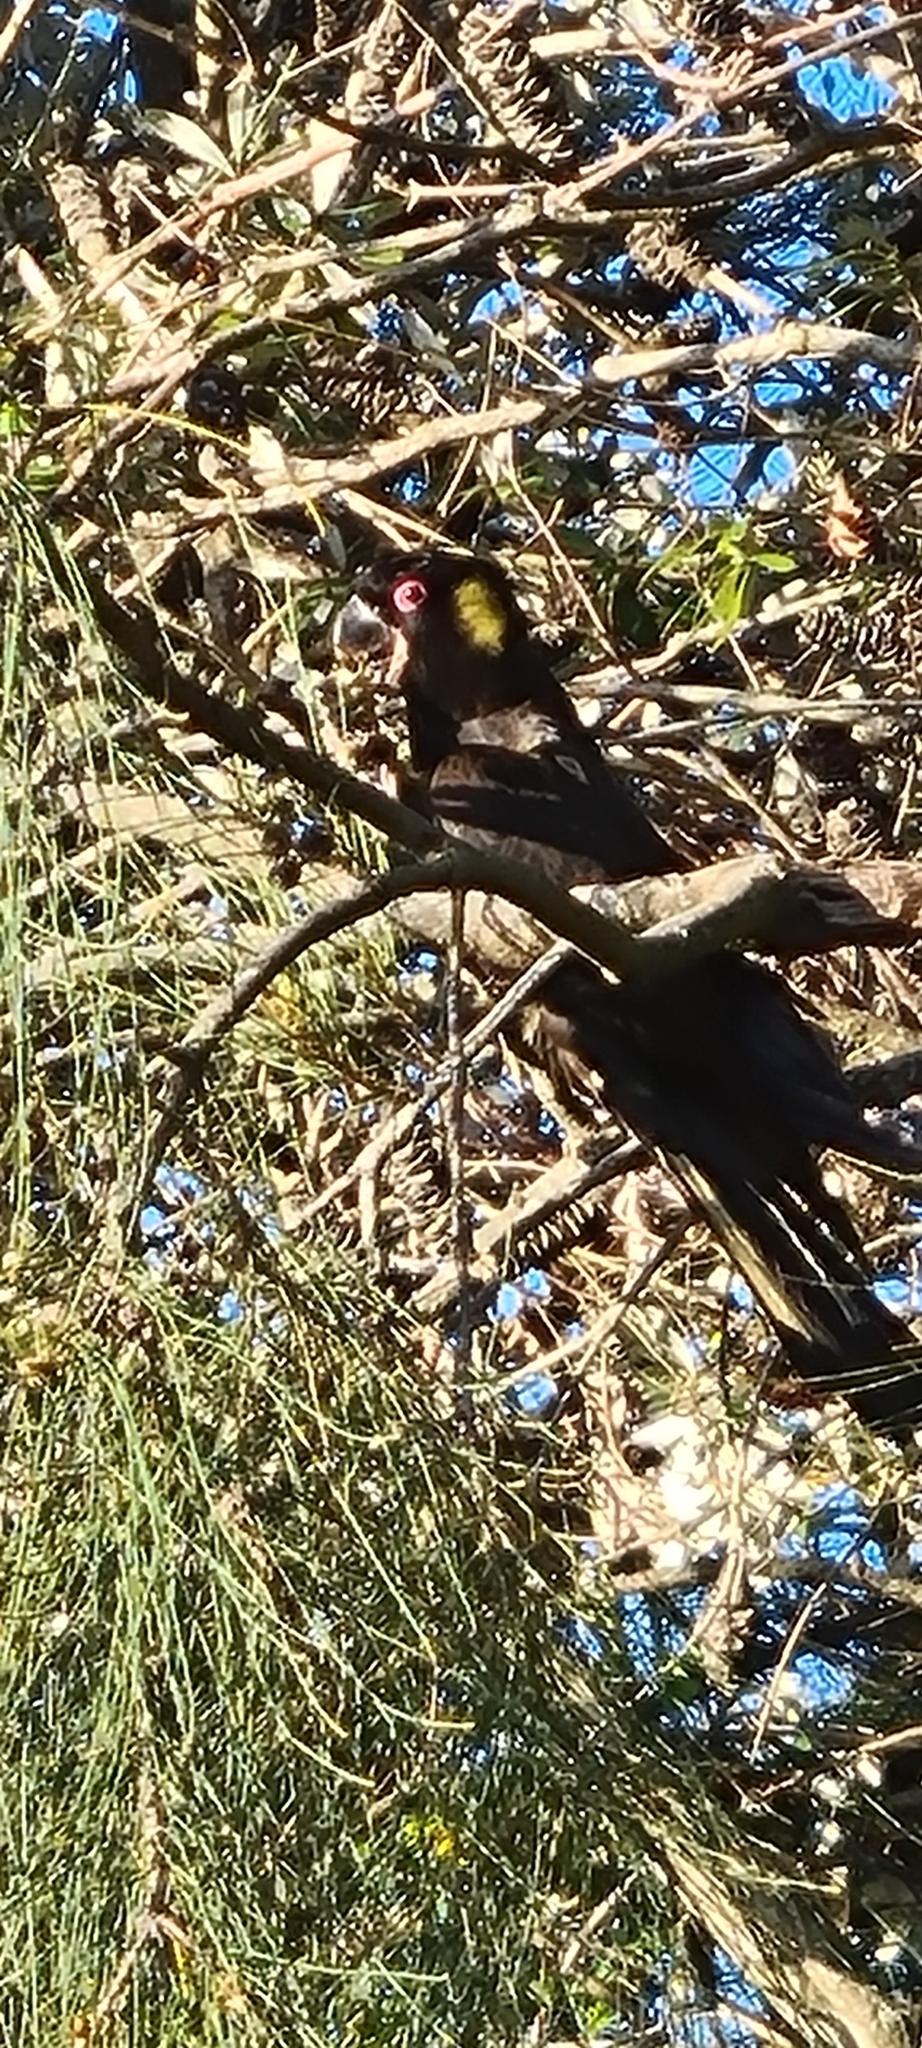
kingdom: Animalia
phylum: Chordata
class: Aves
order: Psittaciformes
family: Cacatuidae
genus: Zanda
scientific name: Zanda funerea
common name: Yellow-tailed black-cockatoo
